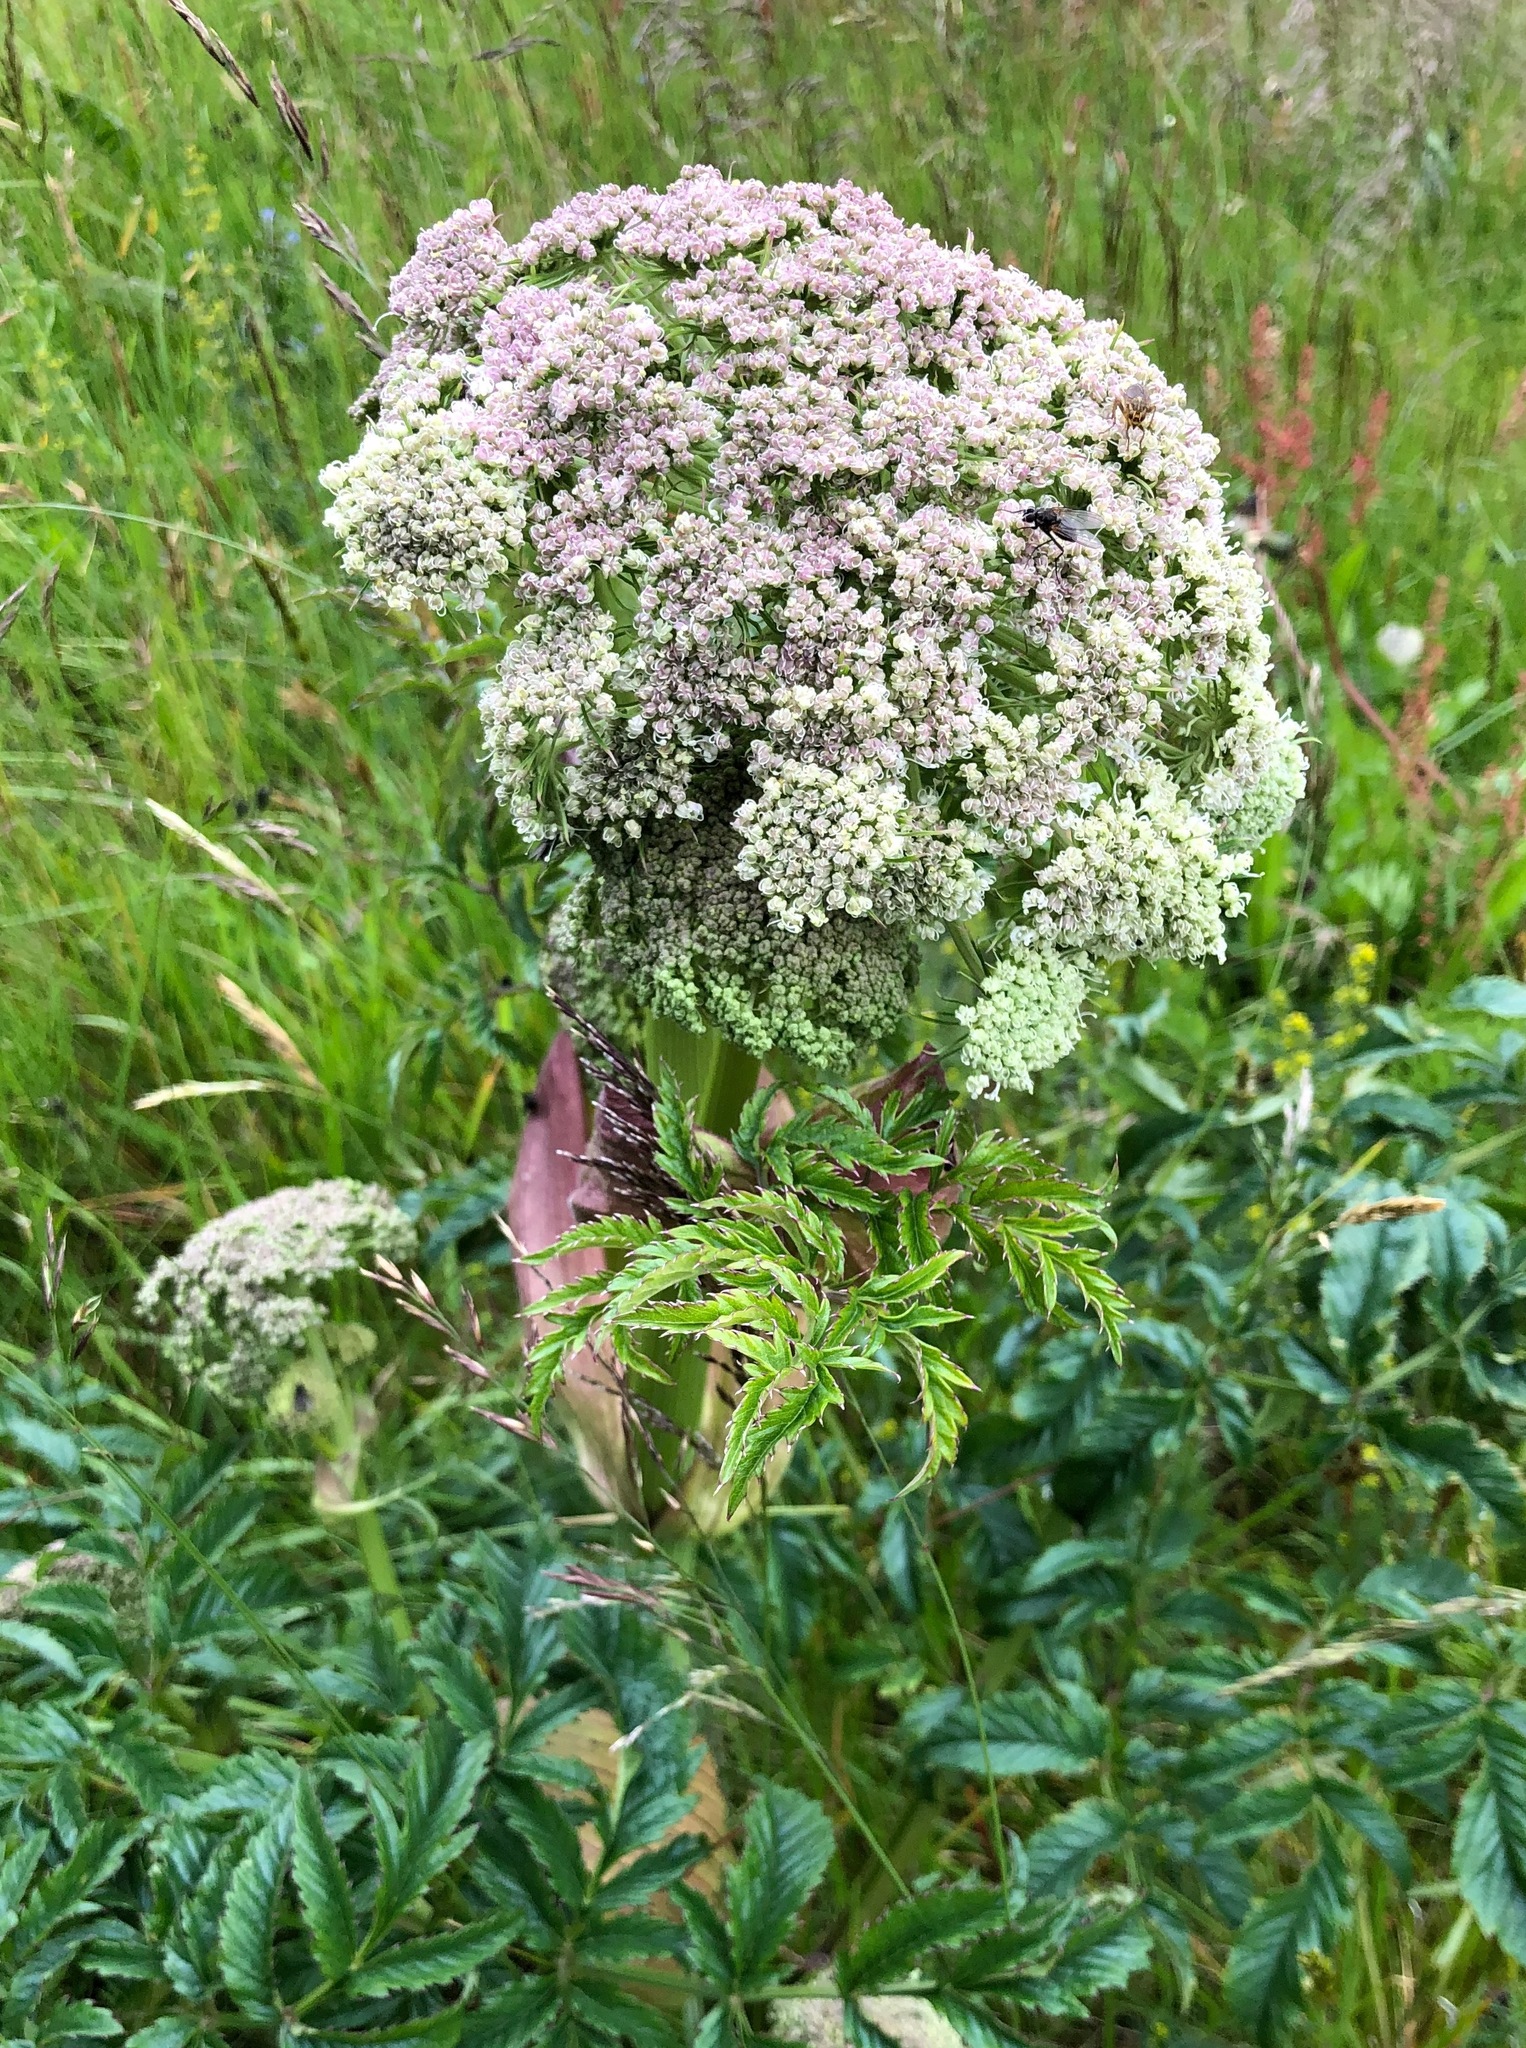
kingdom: Plantae
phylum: Tracheophyta
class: Magnoliopsida
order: Apiales
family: Apiaceae
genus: Angelica
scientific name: Angelica archangelica
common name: Garden angelica
